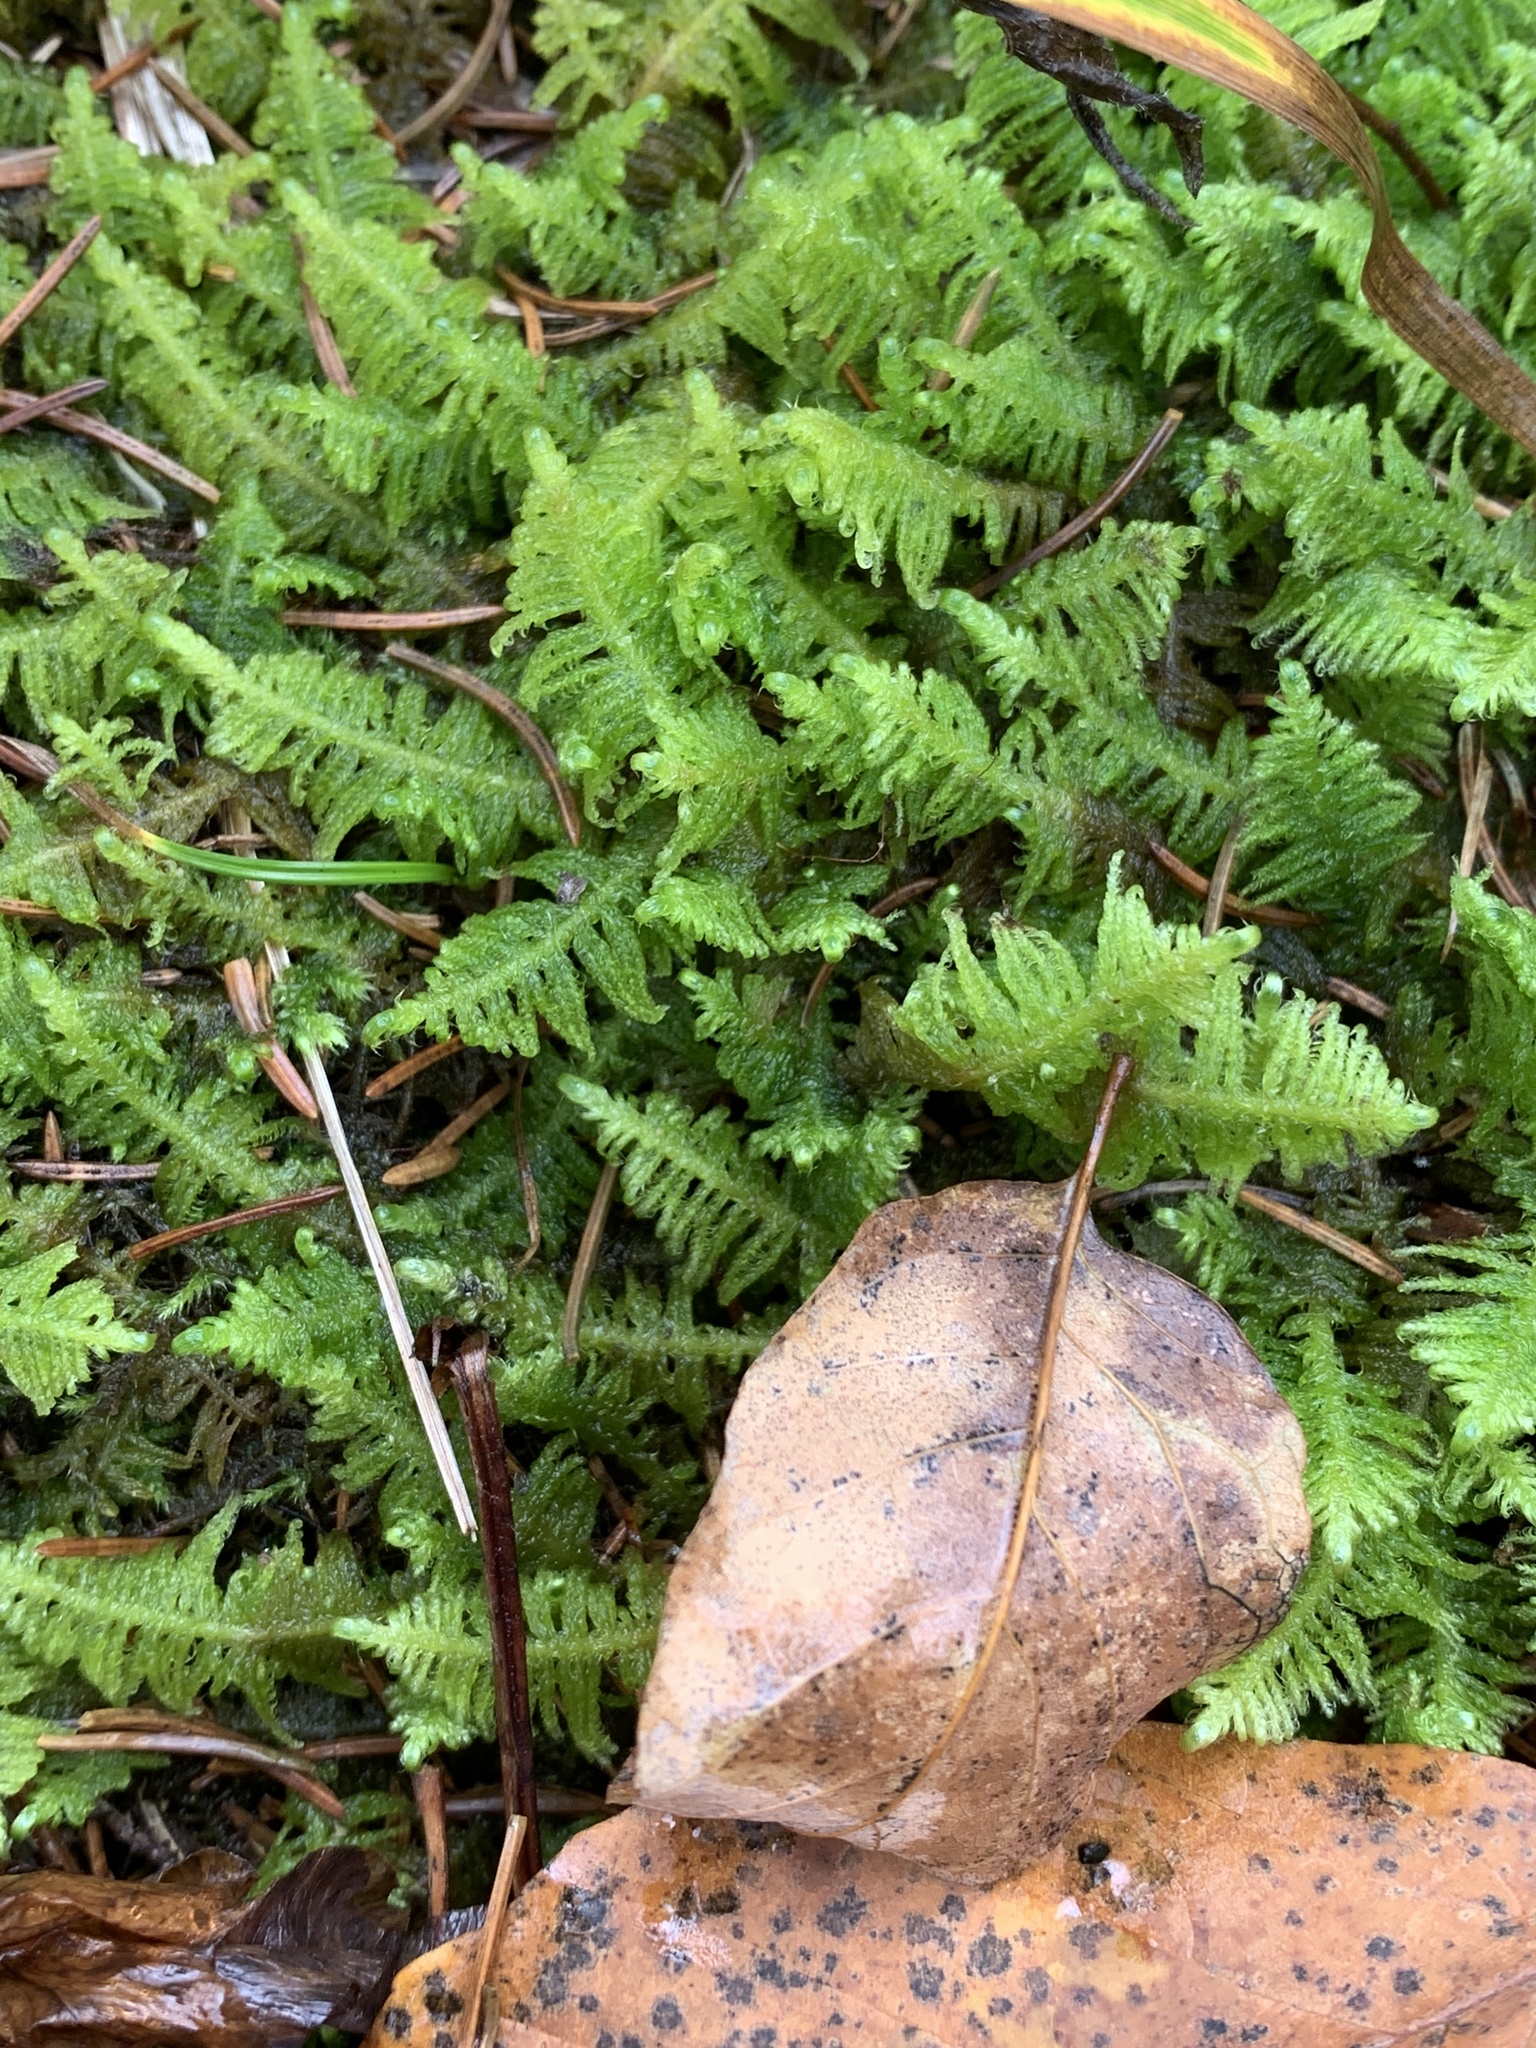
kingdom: Plantae
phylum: Bryophyta
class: Bryopsida
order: Hypnales
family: Pylaisiaceae
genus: Ptilium
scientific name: Ptilium crista-castrensis
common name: Knight's plume moss
